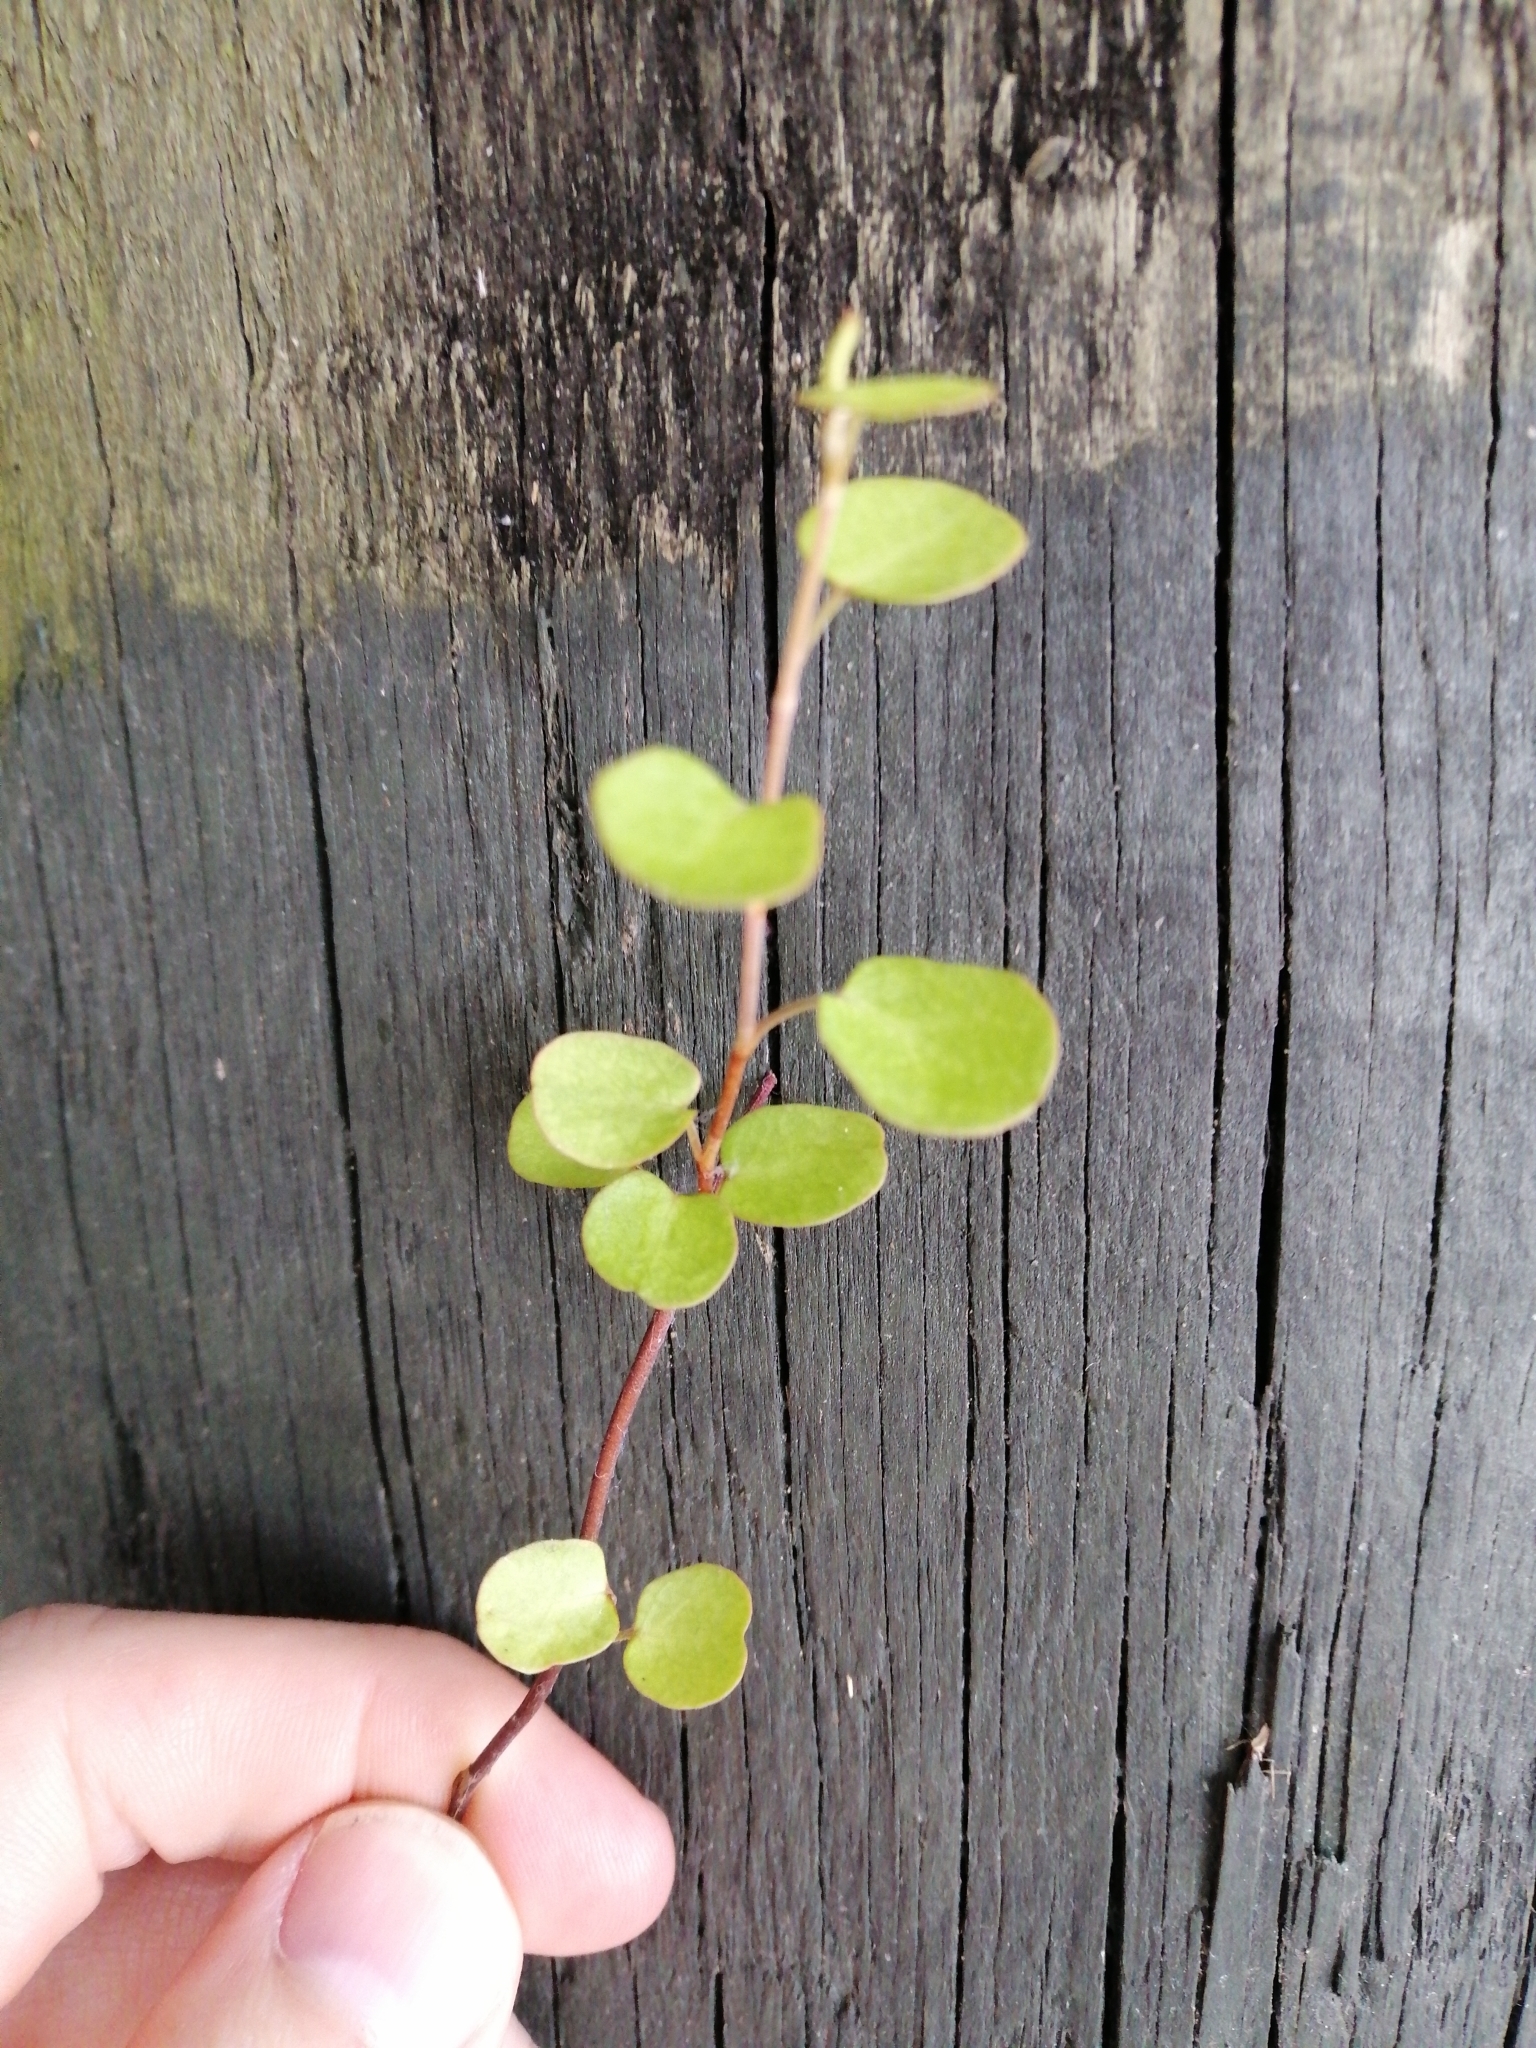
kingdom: Plantae
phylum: Tracheophyta
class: Magnoliopsida
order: Caryophyllales
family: Polygonaceae
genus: Muehlenbeckia
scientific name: Muehlenbeckia complexa
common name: Wireplant
